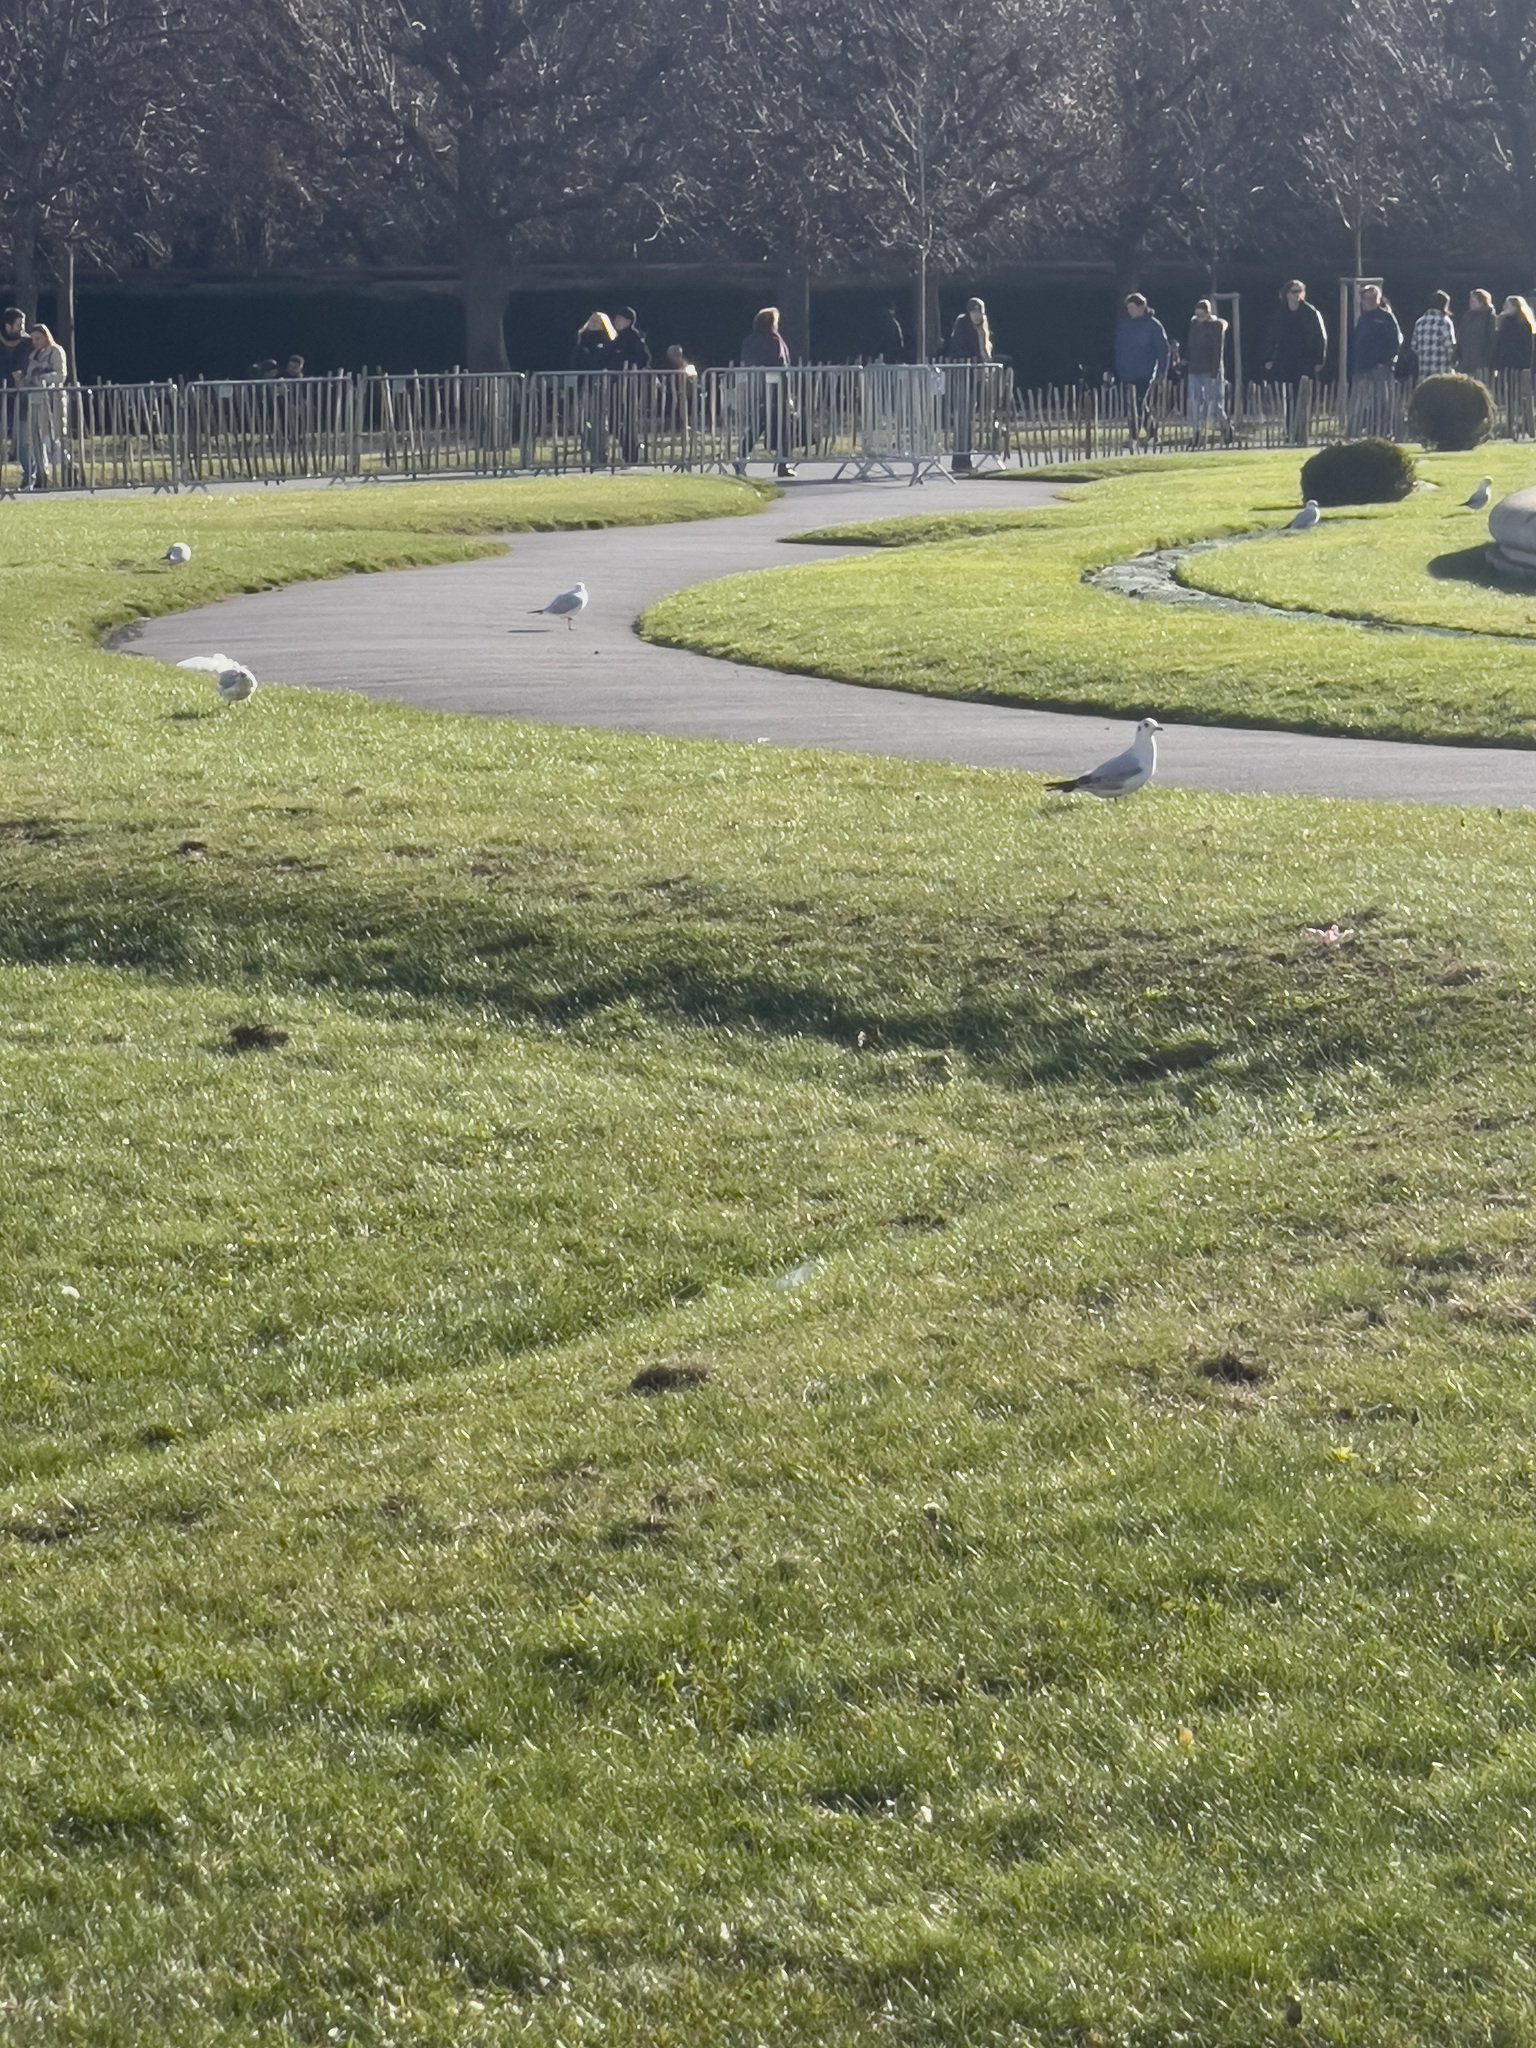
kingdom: Animalia
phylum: Chordata
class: Aves
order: Charadriiformes
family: Laridae
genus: Chroicocephalus
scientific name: Chroicocephalus ridibundus
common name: Black-headed gull
